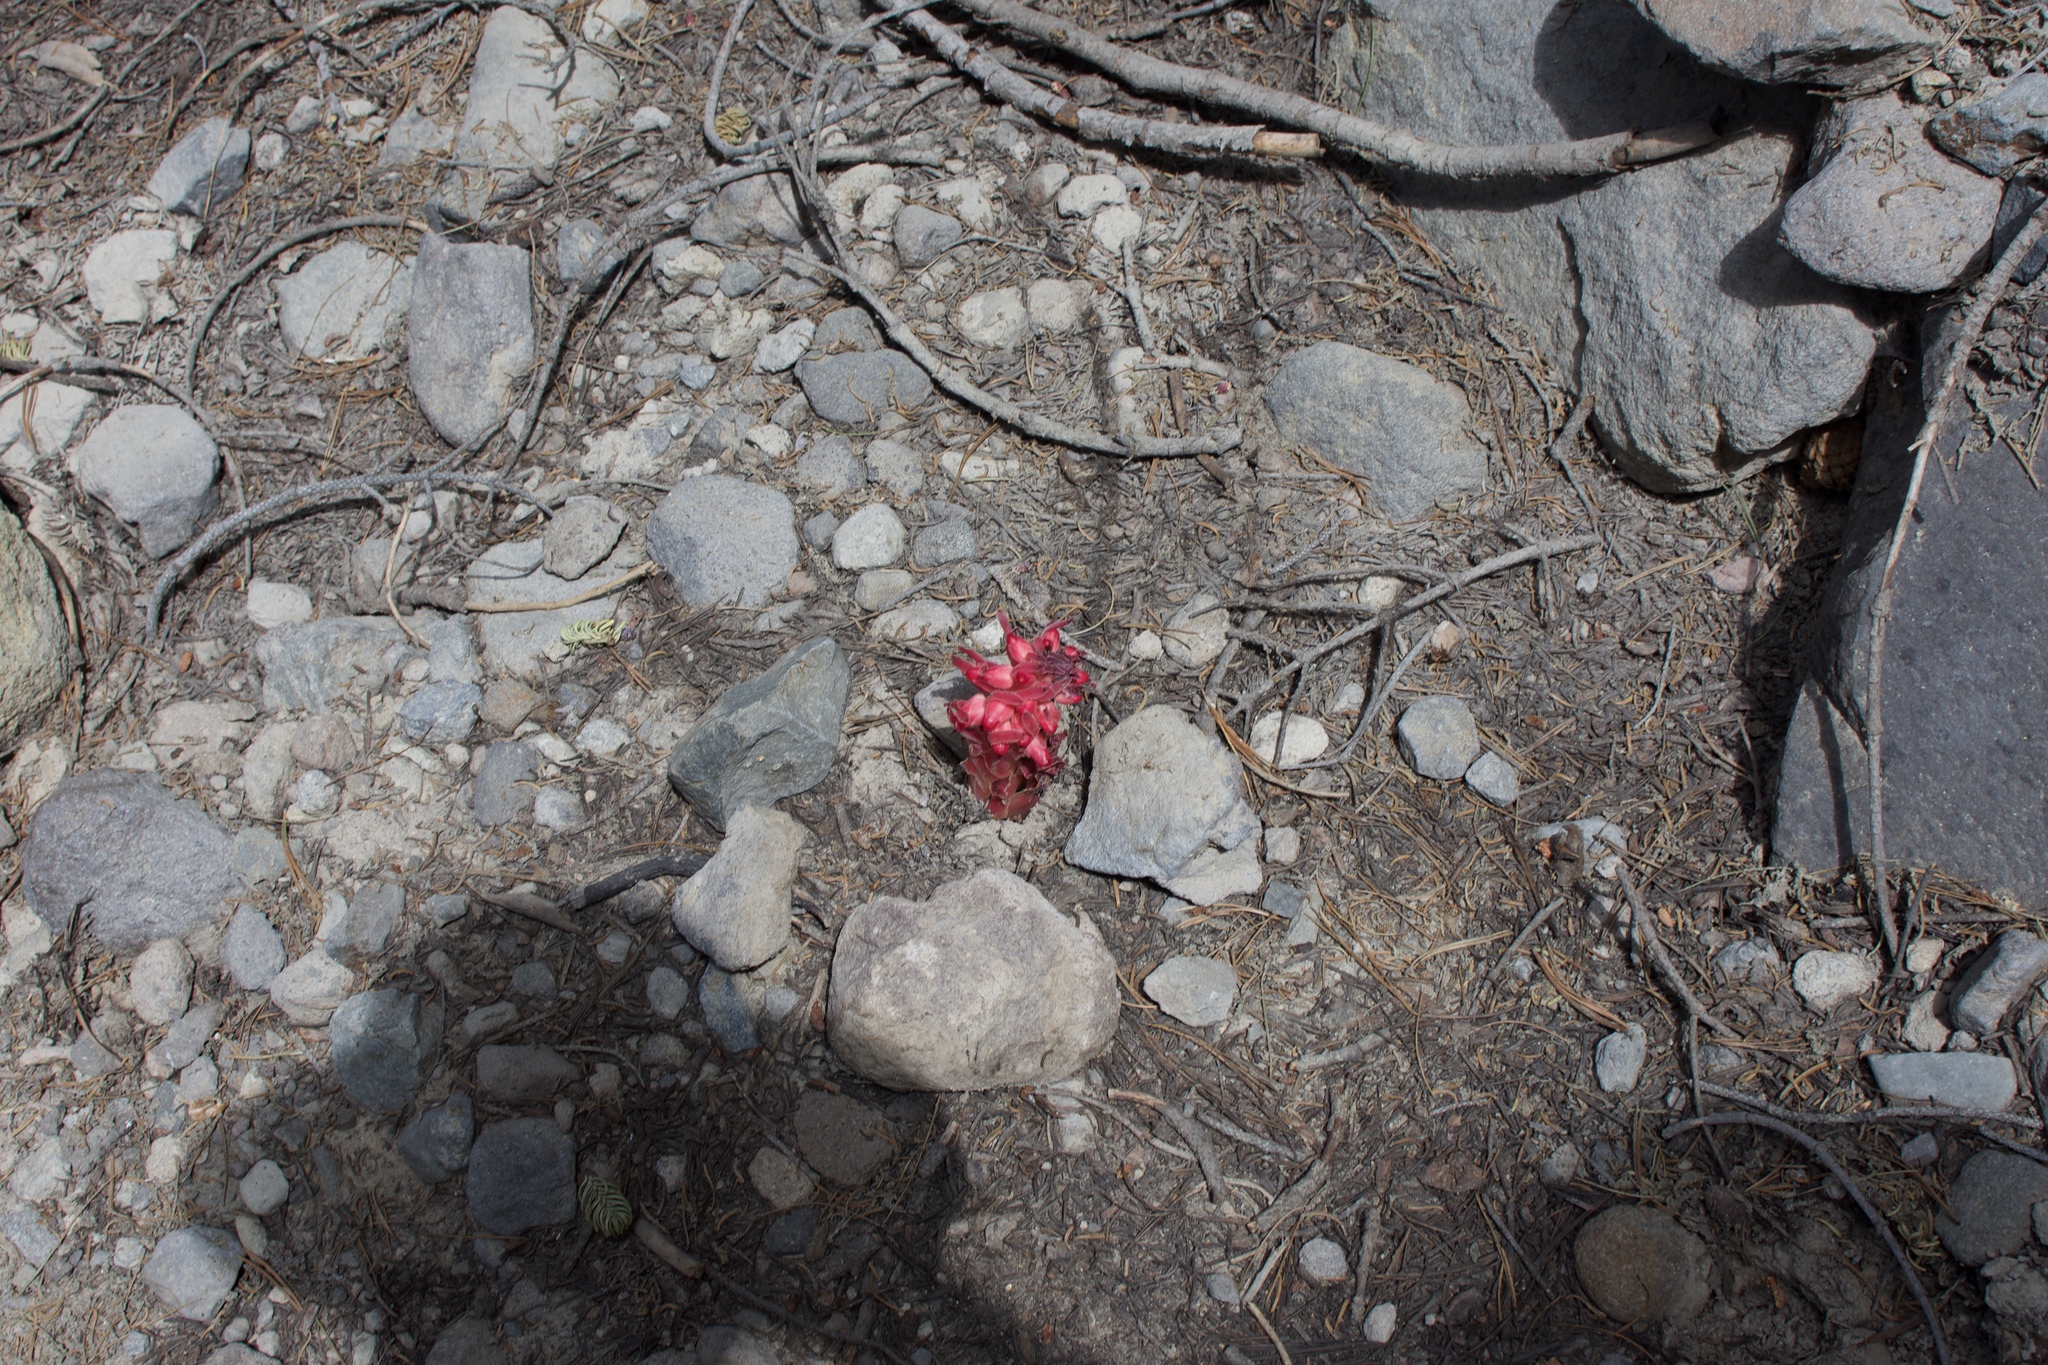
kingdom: Plantae
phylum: Tracheophyta
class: Magnoliopsida
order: Ericales
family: Ericaceae
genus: Sarcodes
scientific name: Sarcodes sanguinea
